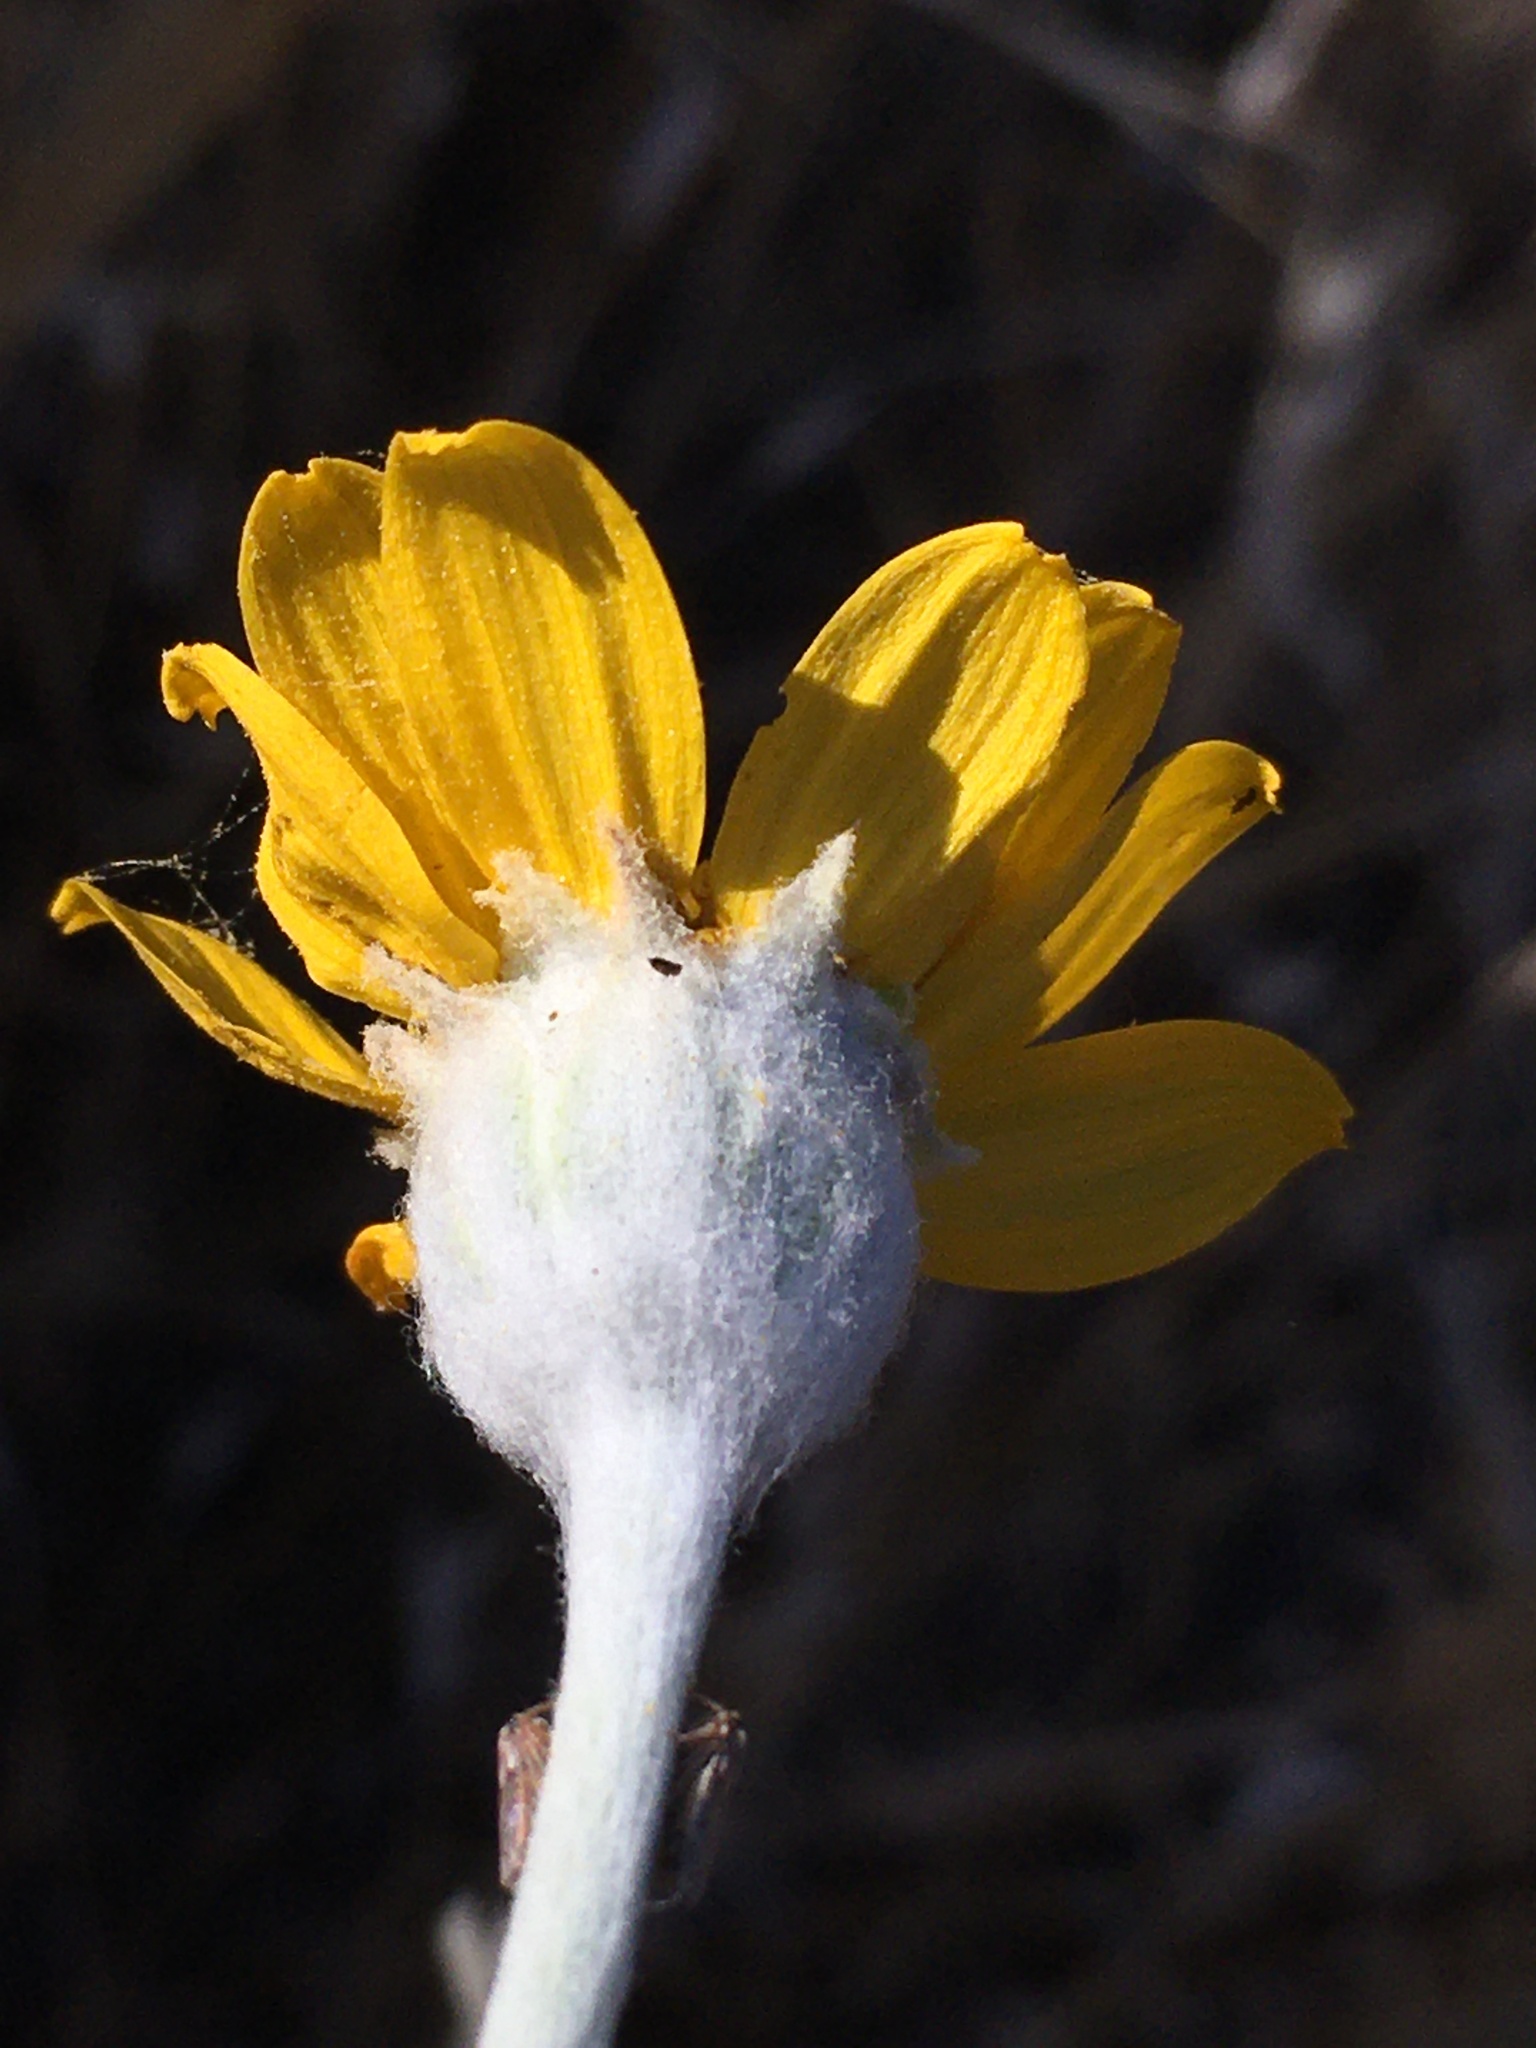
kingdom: Plantae
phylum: Tracheophyta
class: Magnoliopsida
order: Asterales
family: Asteraceae
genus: Eriophyllum
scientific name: Eriophyllum lanatum
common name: Common woolly-sunflower
